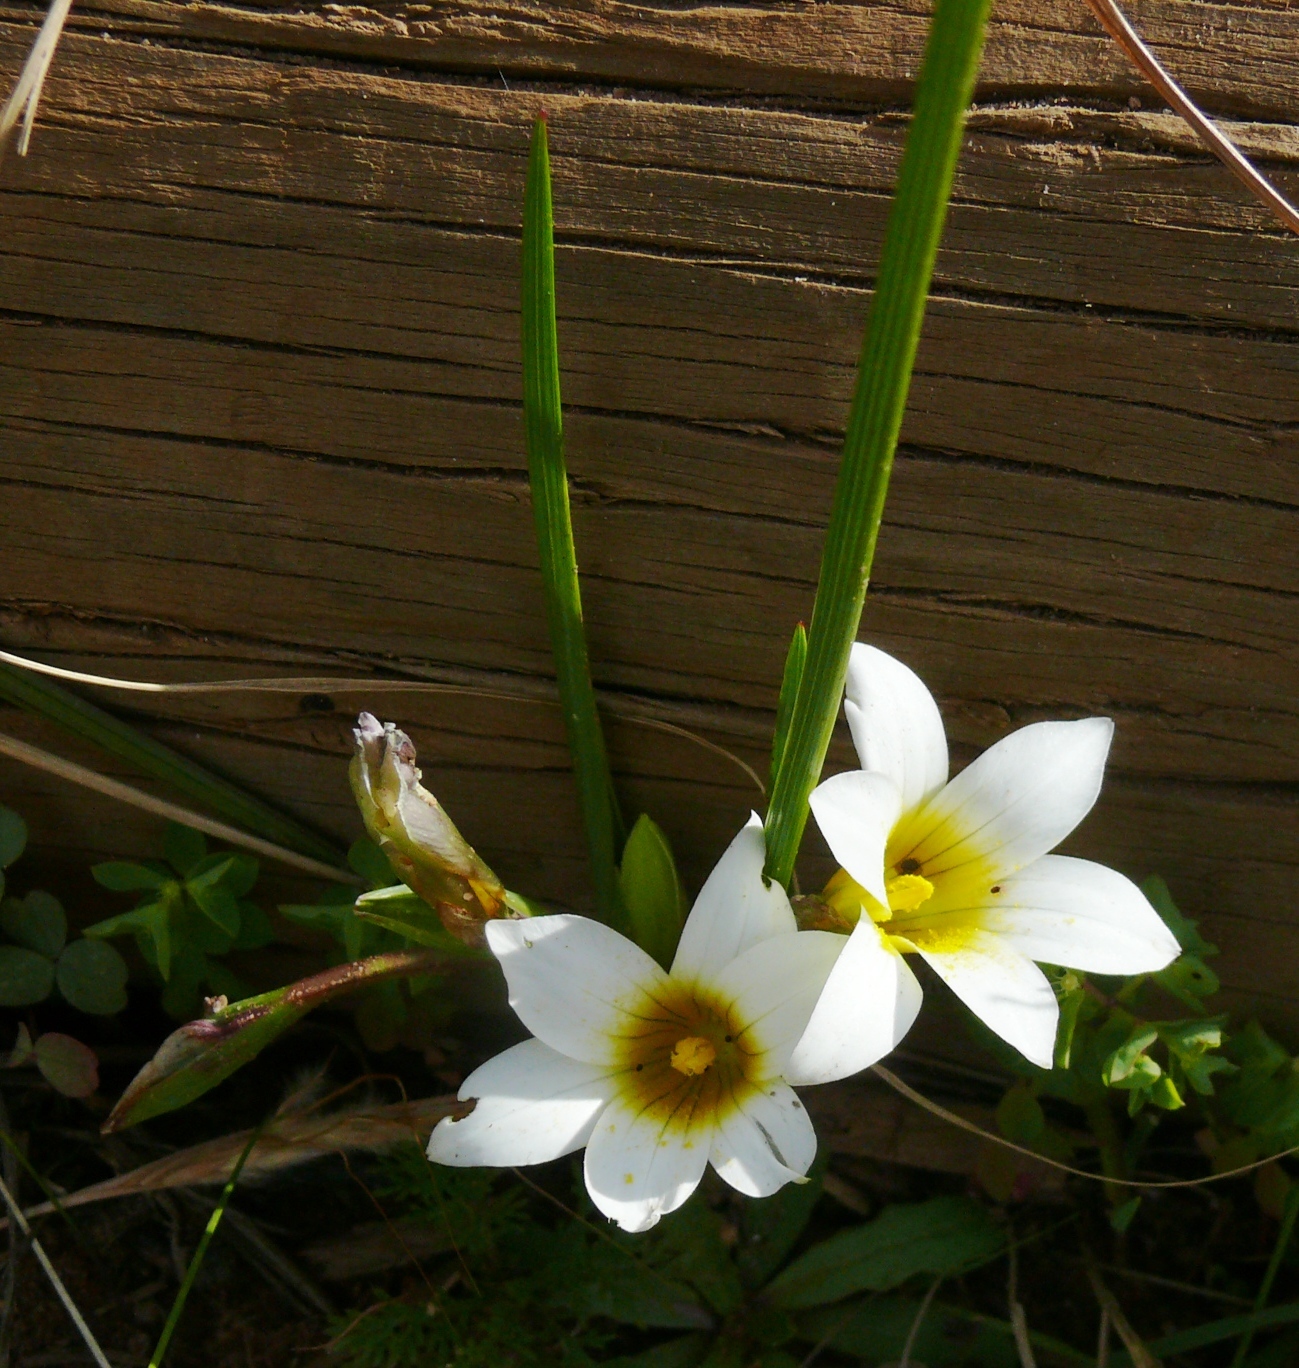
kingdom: Plantae
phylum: Tracheophyta
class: Liliopsida
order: Asparagales
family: Iridaceae
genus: Romulea
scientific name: Romulea flava
